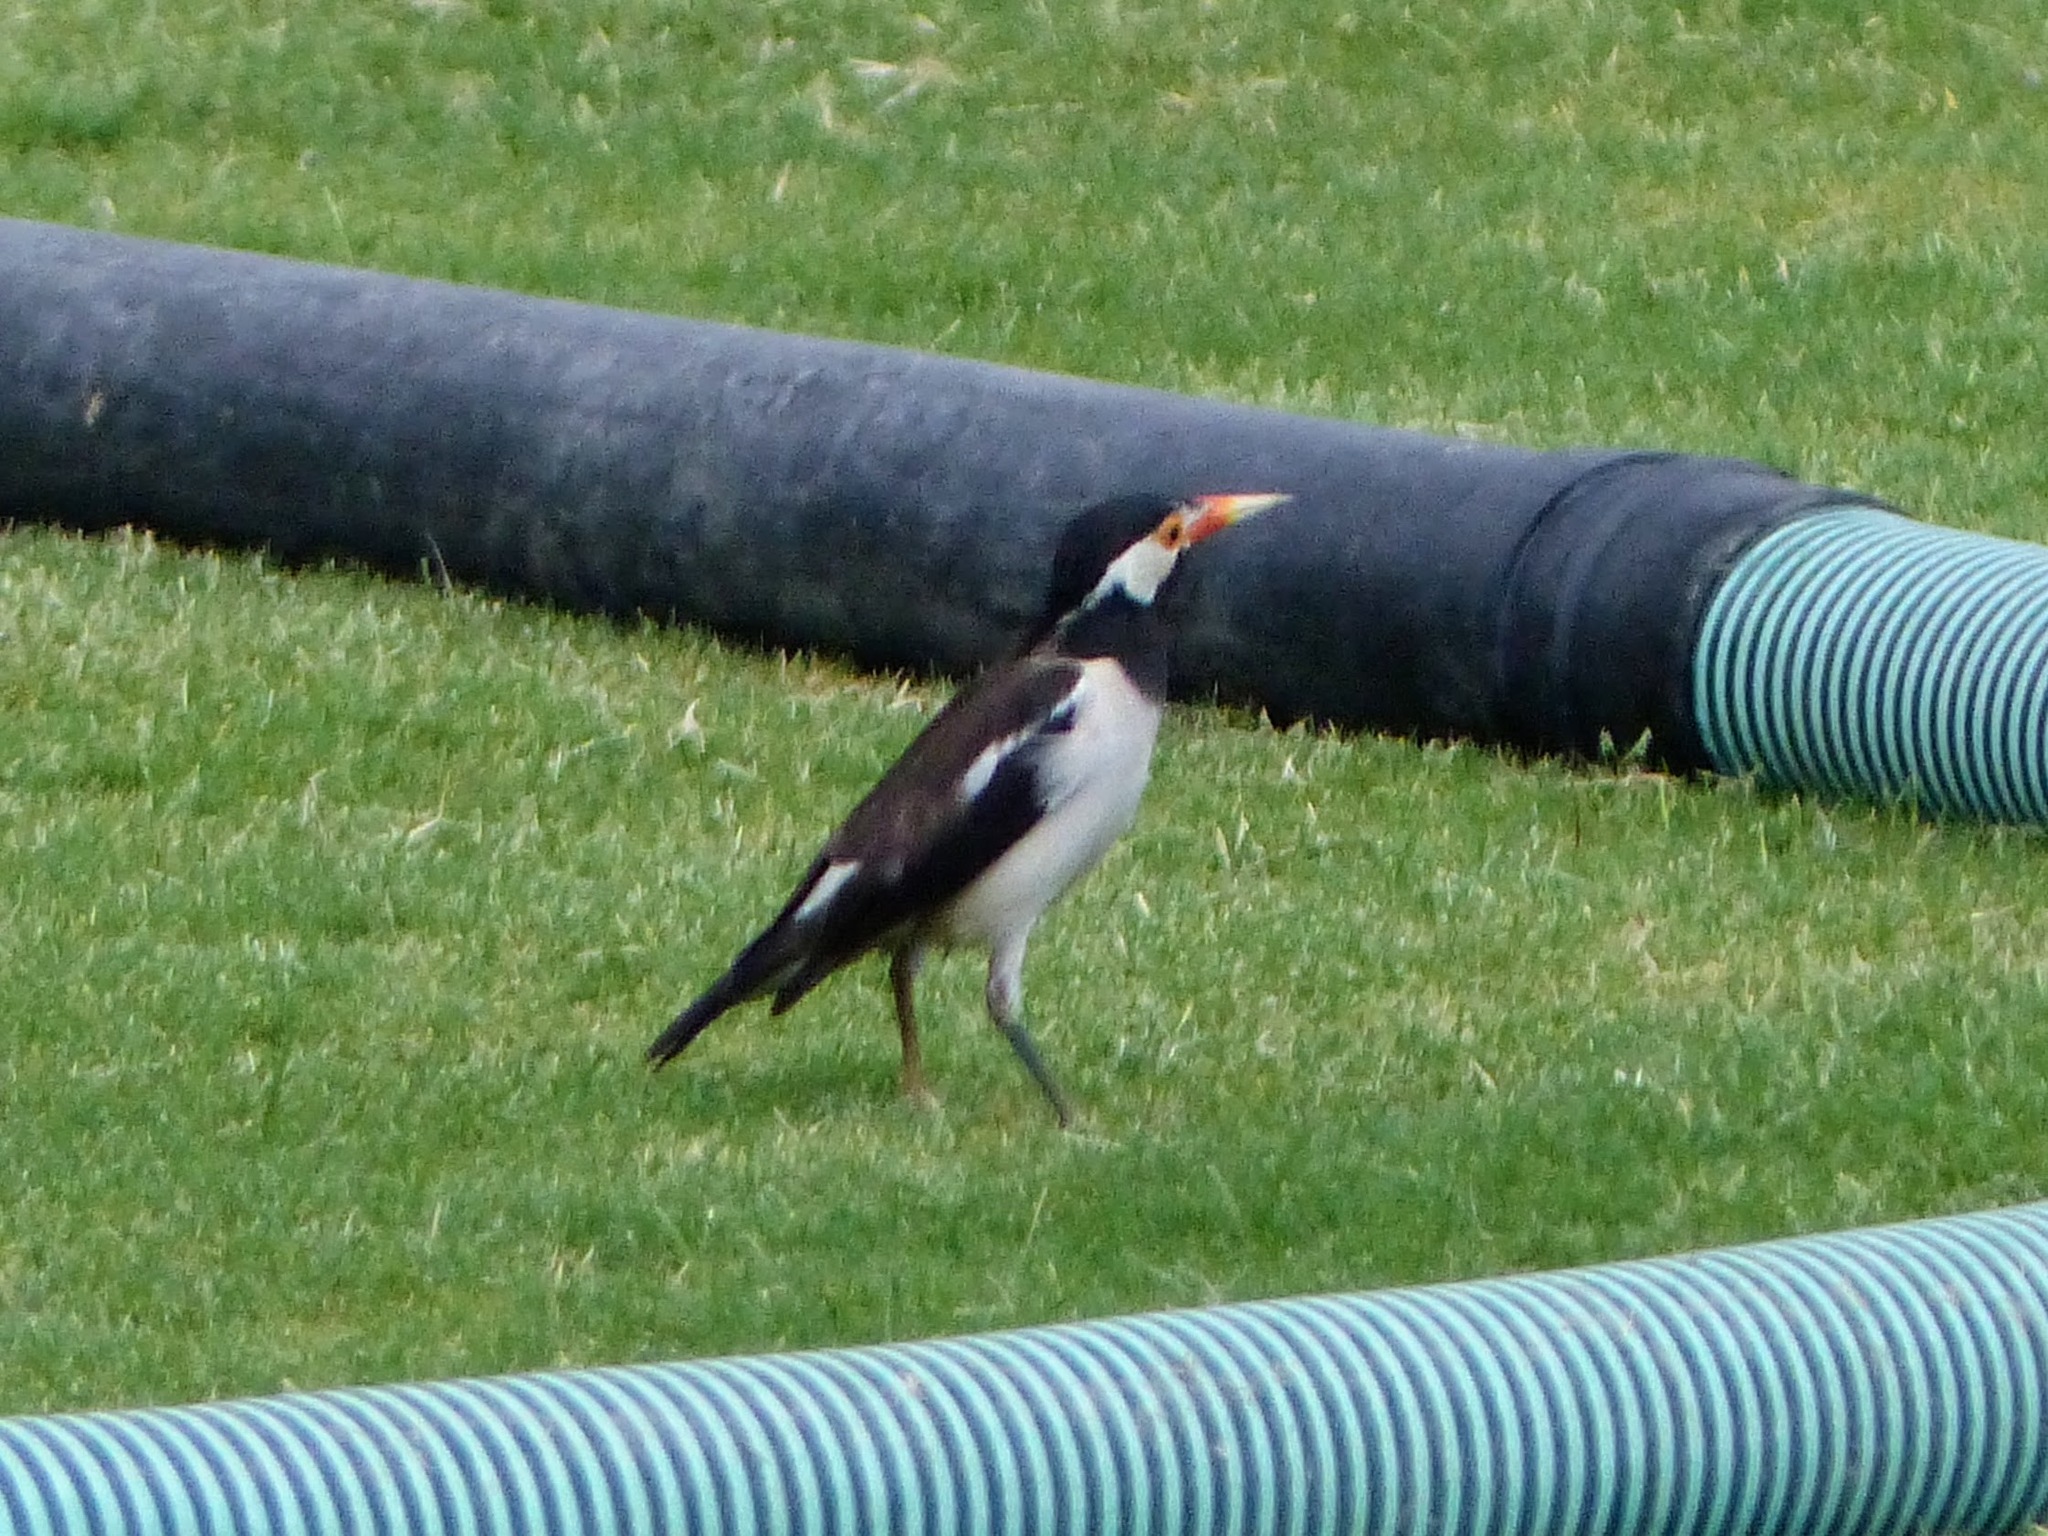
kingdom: Animalia
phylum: Chordata
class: Aves
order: Passeriformes
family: Sturnidae
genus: Gracupica
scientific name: Gracupica contra
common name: Pied myna
